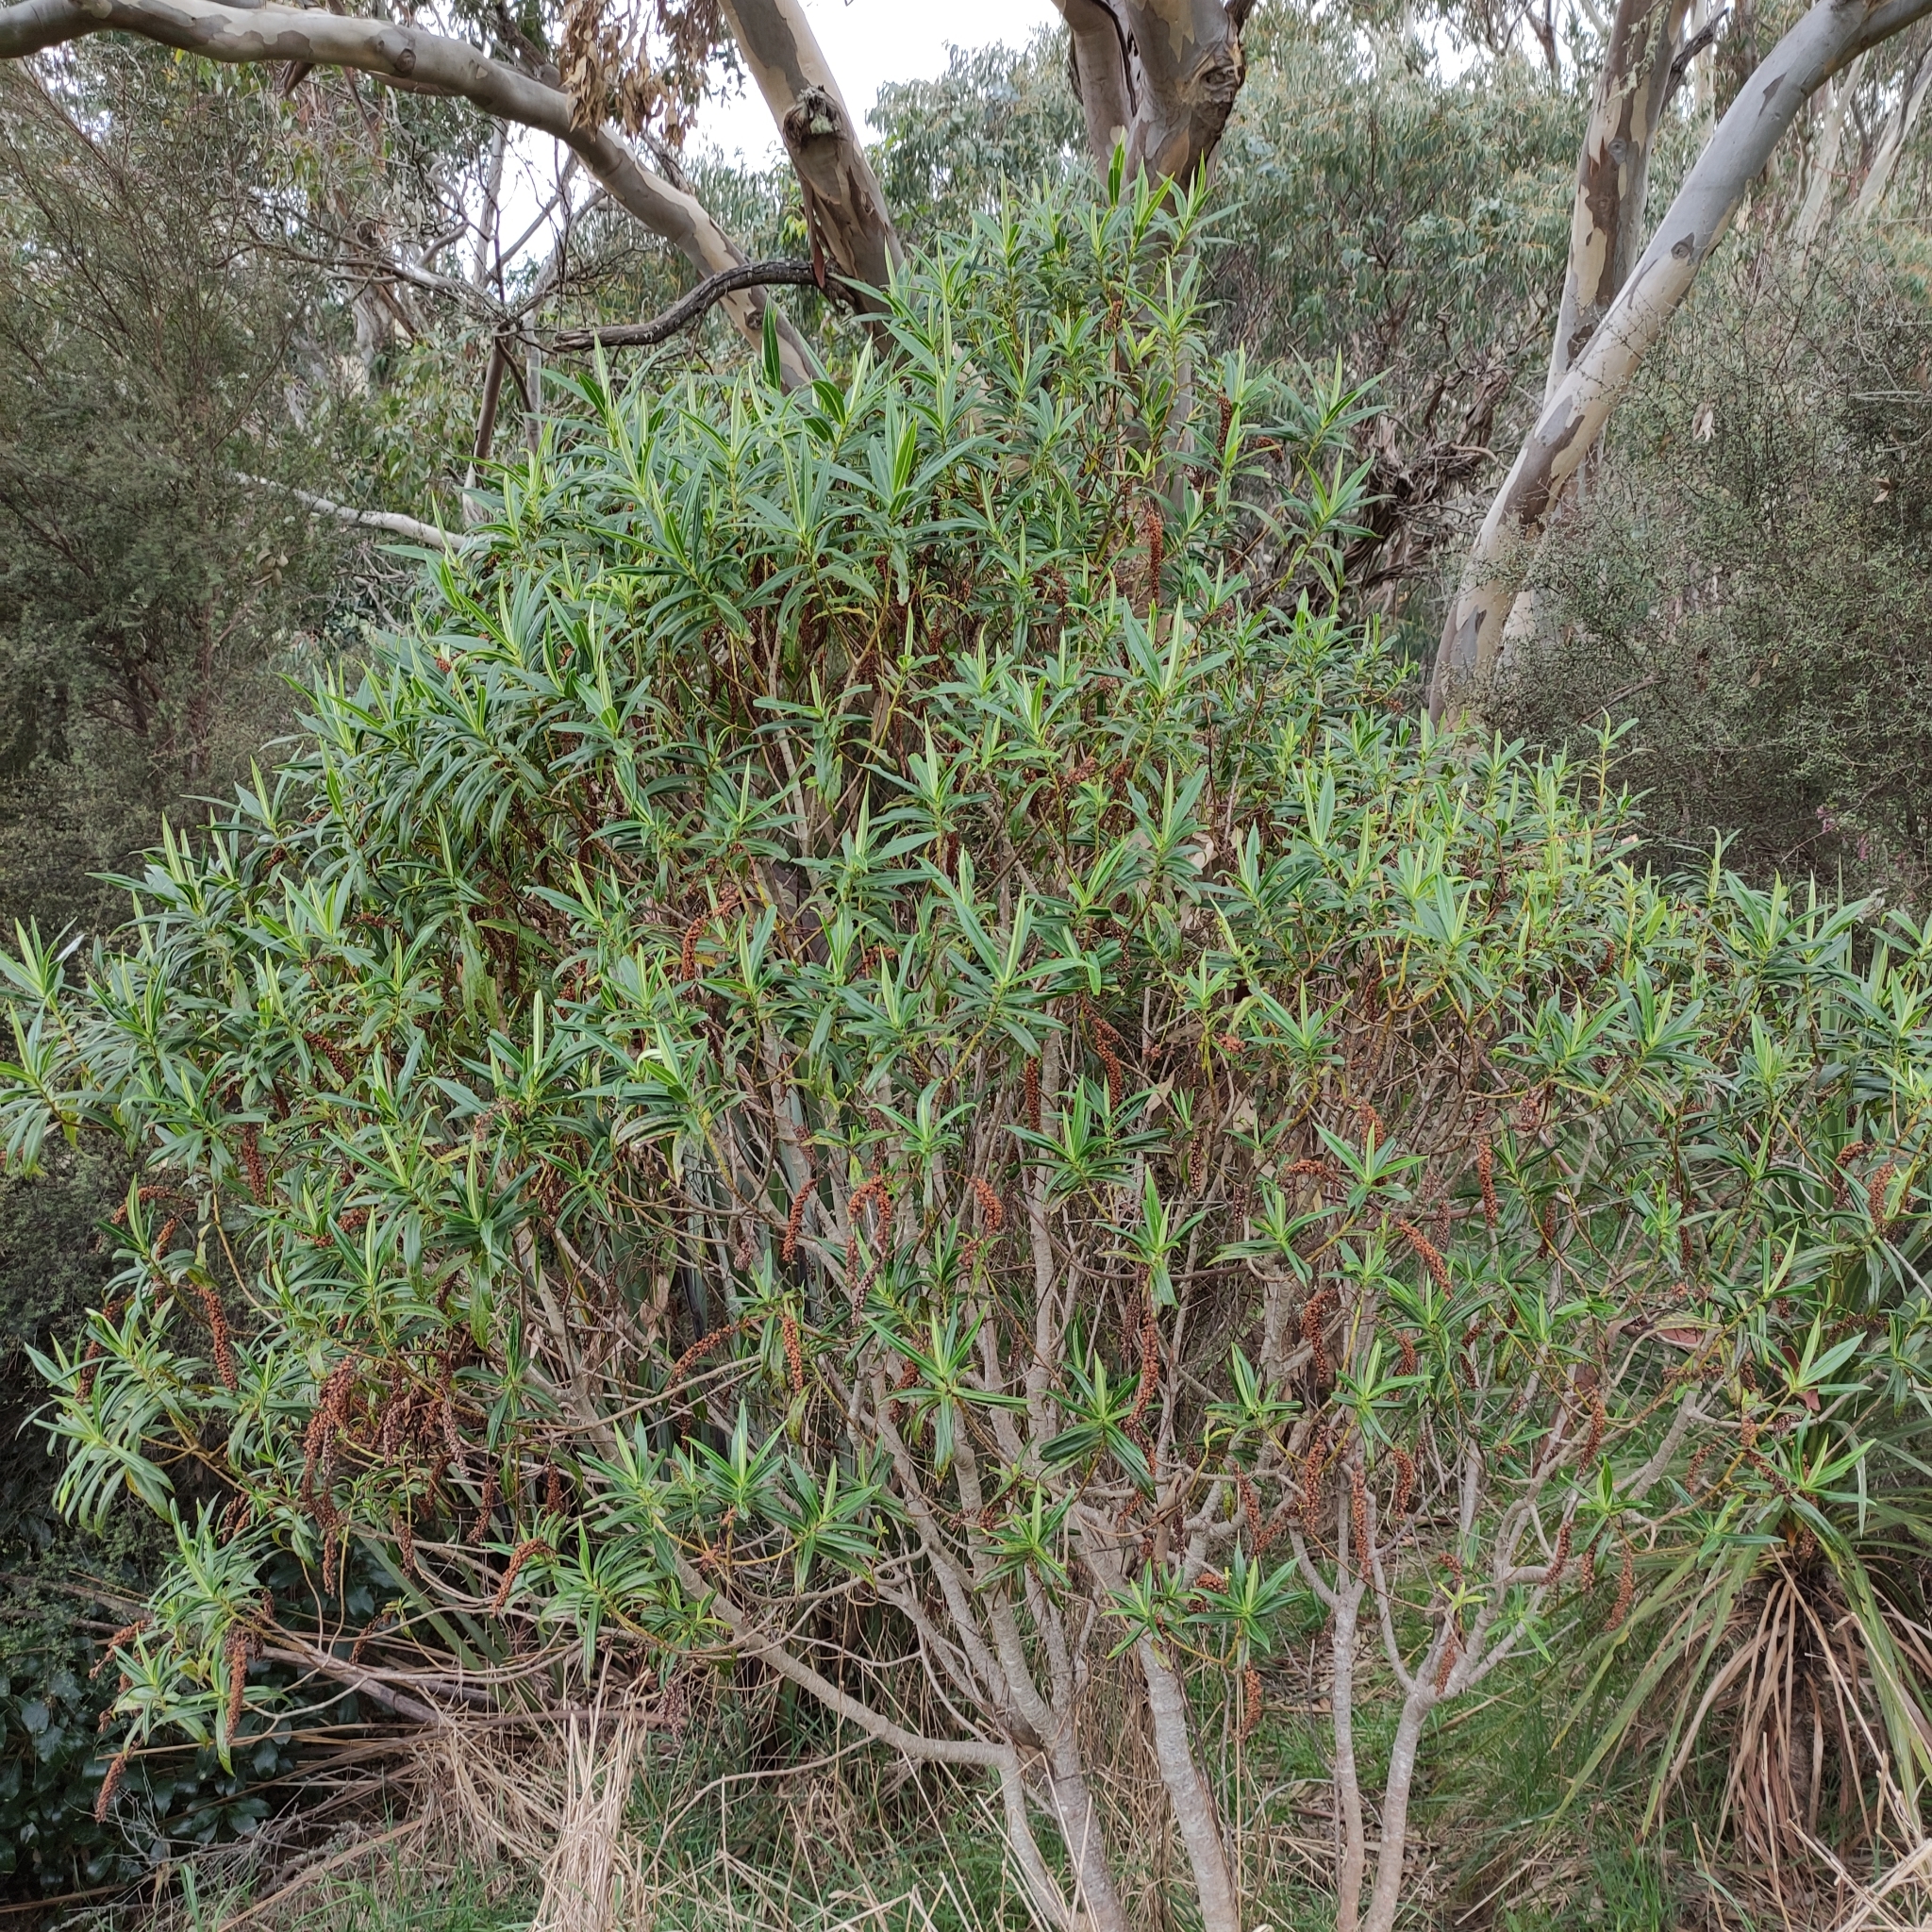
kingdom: Plantae
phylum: Tracheophyta
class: Magnoliopsida
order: Lamiales
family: Plantaginaceae
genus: Veronica
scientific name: Veronica salicifolia
